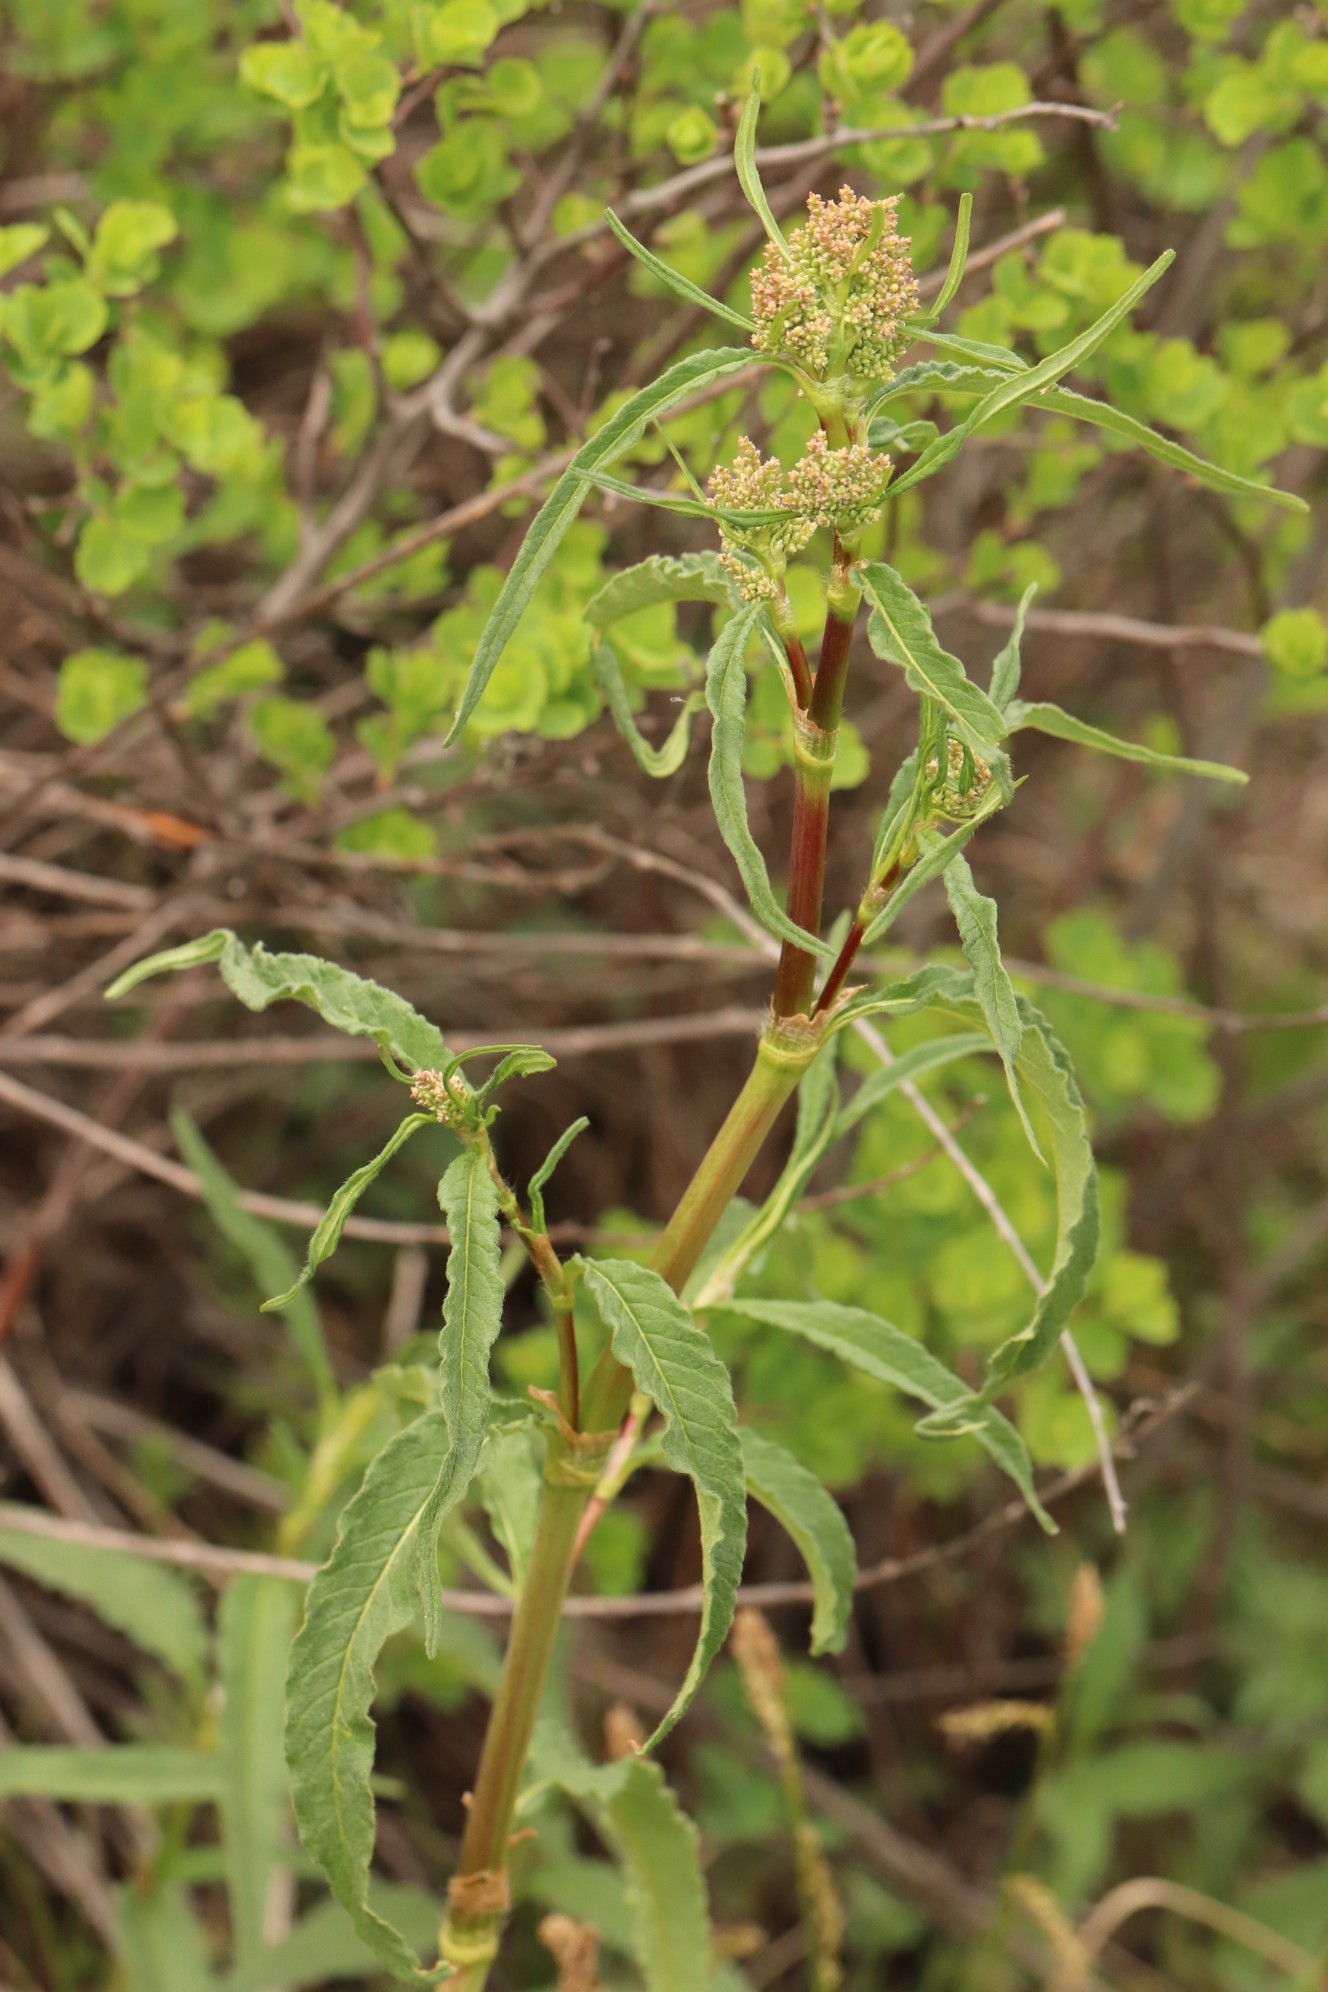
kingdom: Plantae
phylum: Tracheophyta
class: Magnoliopsida
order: Caryophyllales
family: Polygonaceae
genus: Koenigia
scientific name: Koenigia alpina
